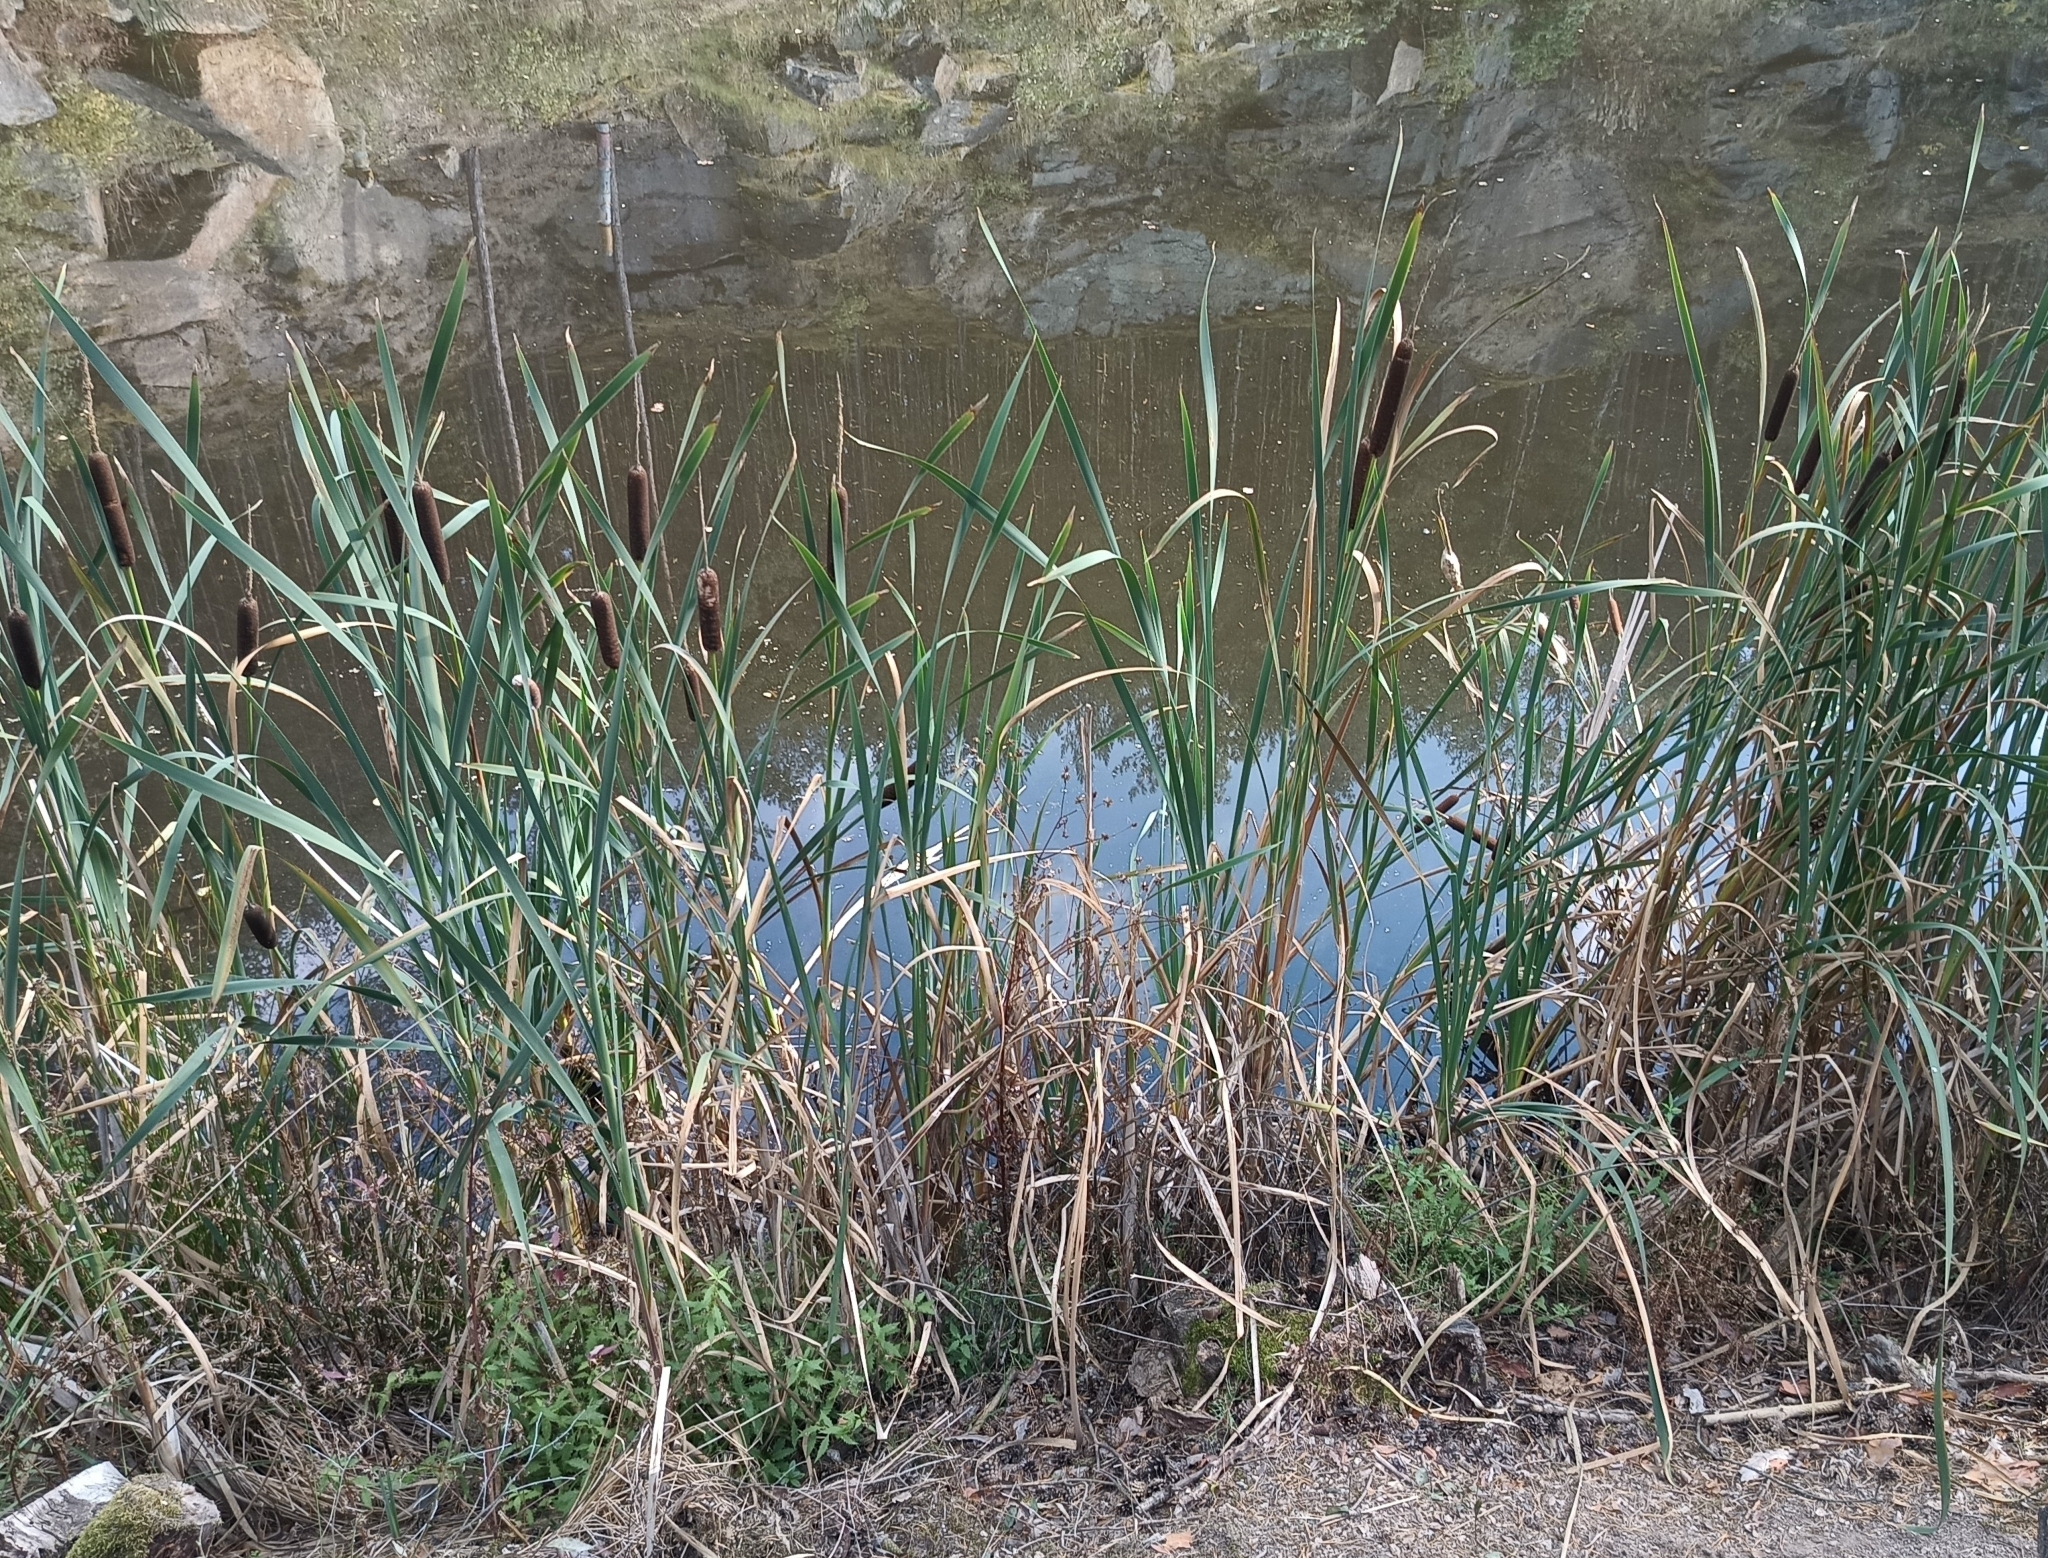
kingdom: Plantae
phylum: Tracheophyta
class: Liliopsida
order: Poales
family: Typhaceae
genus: Typha
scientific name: Typha latifolia
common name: Broadleaf cattail
